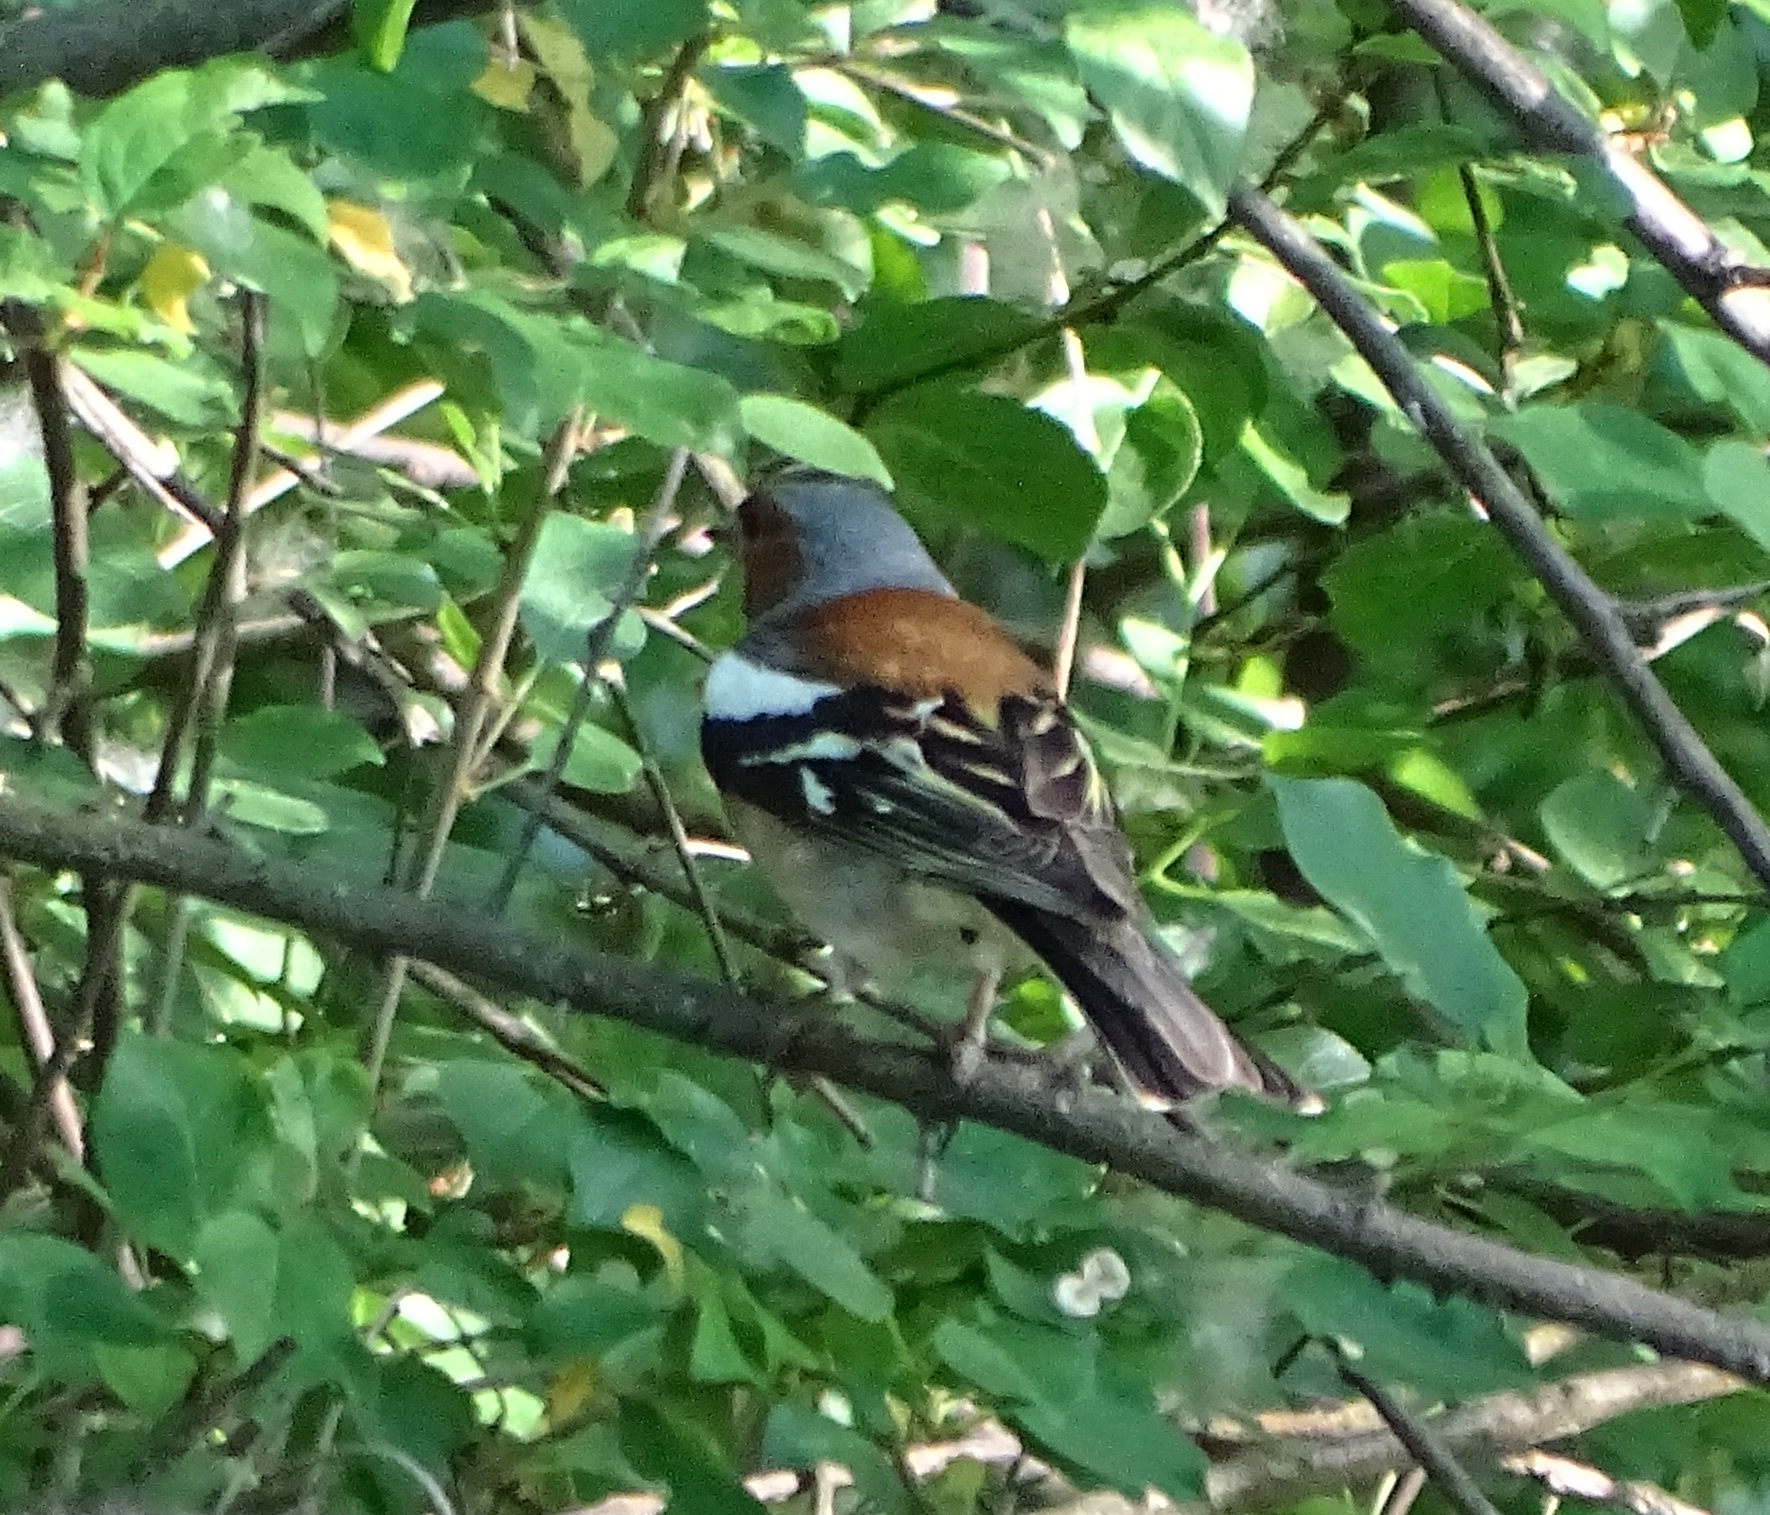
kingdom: Animalia
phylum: Chordata
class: Aves
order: Passeriformes
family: Fringillidae
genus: Fringilla
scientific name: Fringilla coelebs
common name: Common chaffinch
